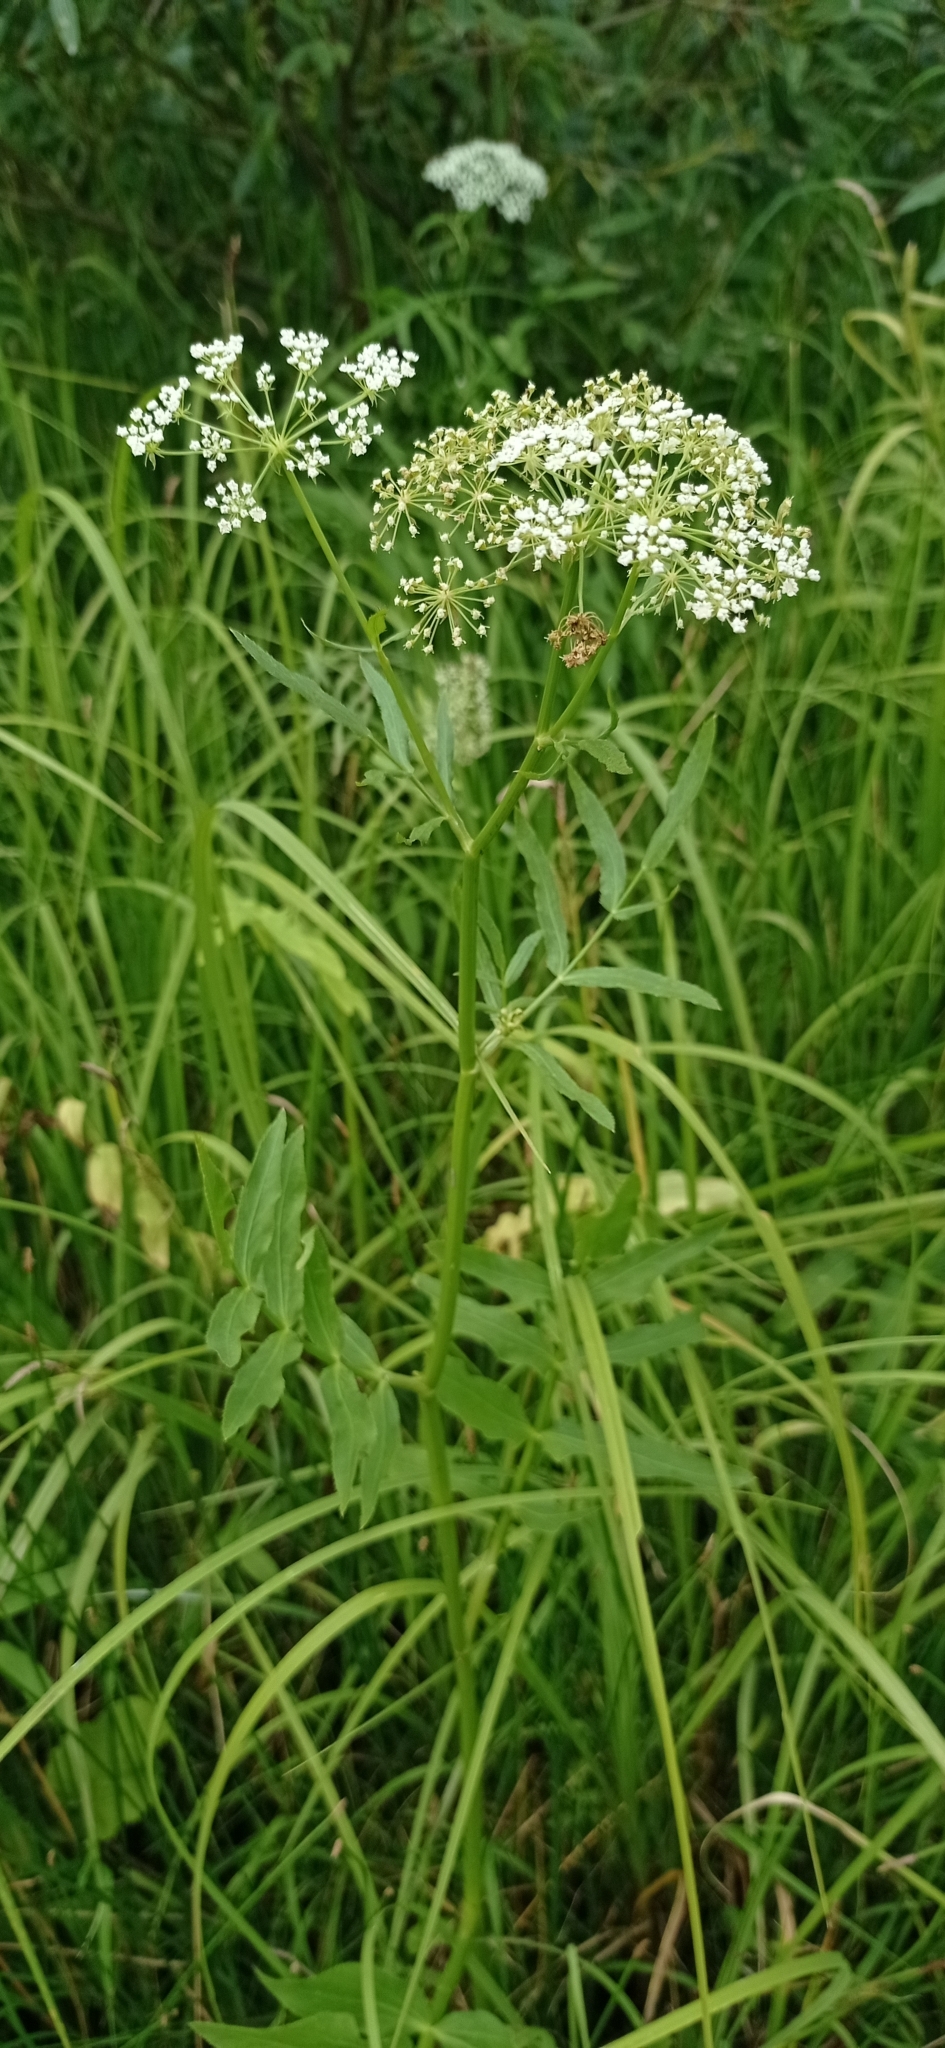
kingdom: Plantae
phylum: Tracheophyta
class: Magnoliopsida
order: Apiales
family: Apiaceae
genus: Sium
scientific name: Sium latifolium
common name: Greater water-parsnip
